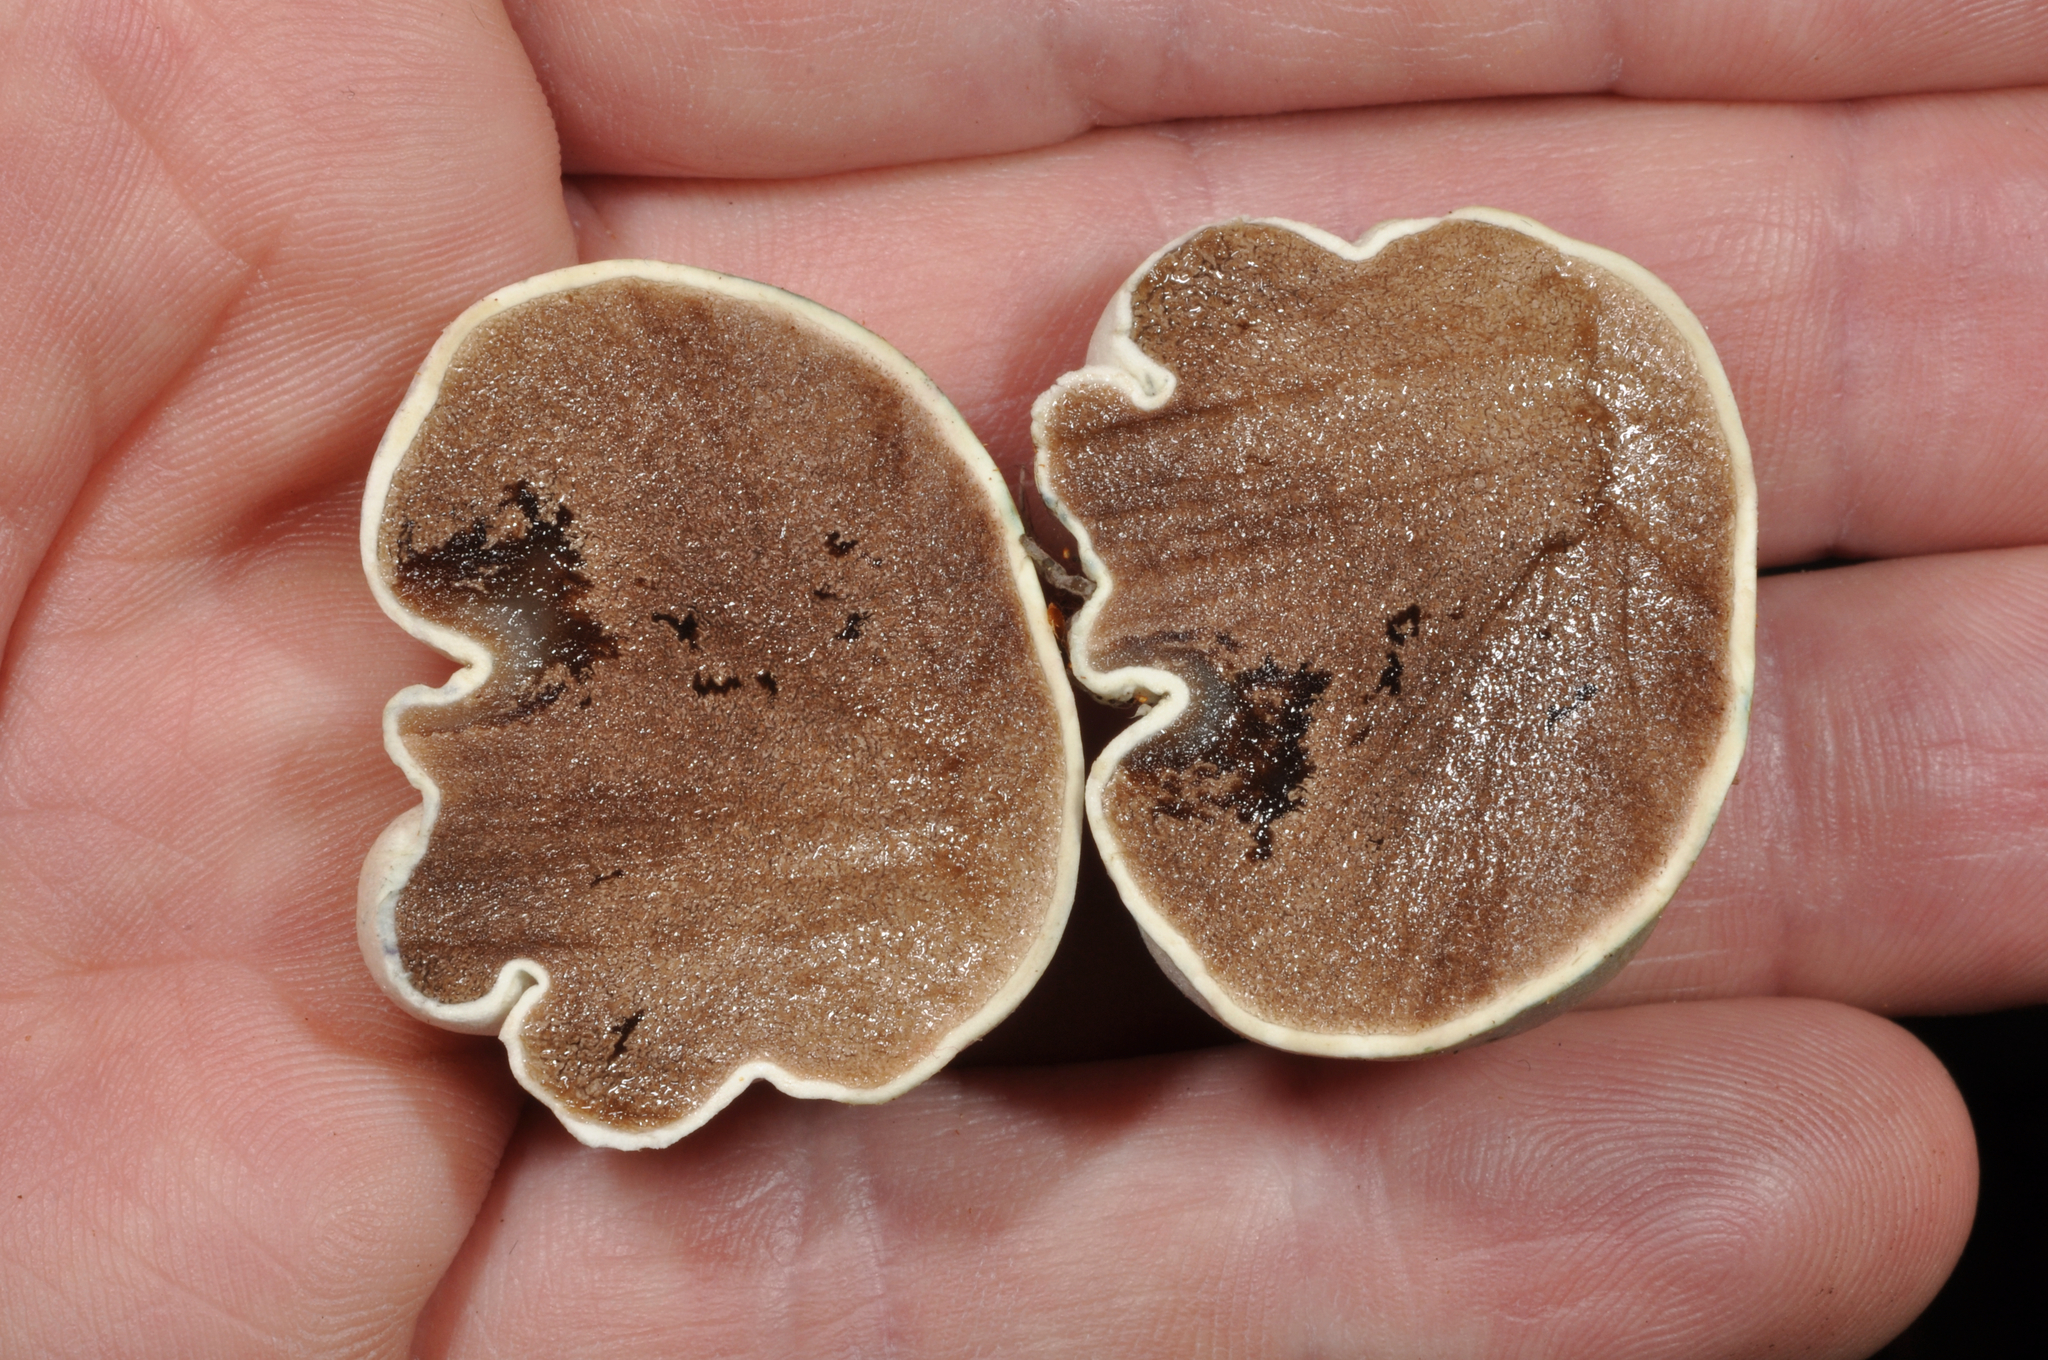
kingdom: Fungi
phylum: Basidiomycota
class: Agaricomycetes
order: Boletales
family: Boletaceae
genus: Leccinum
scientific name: Leccinum pachyderme
